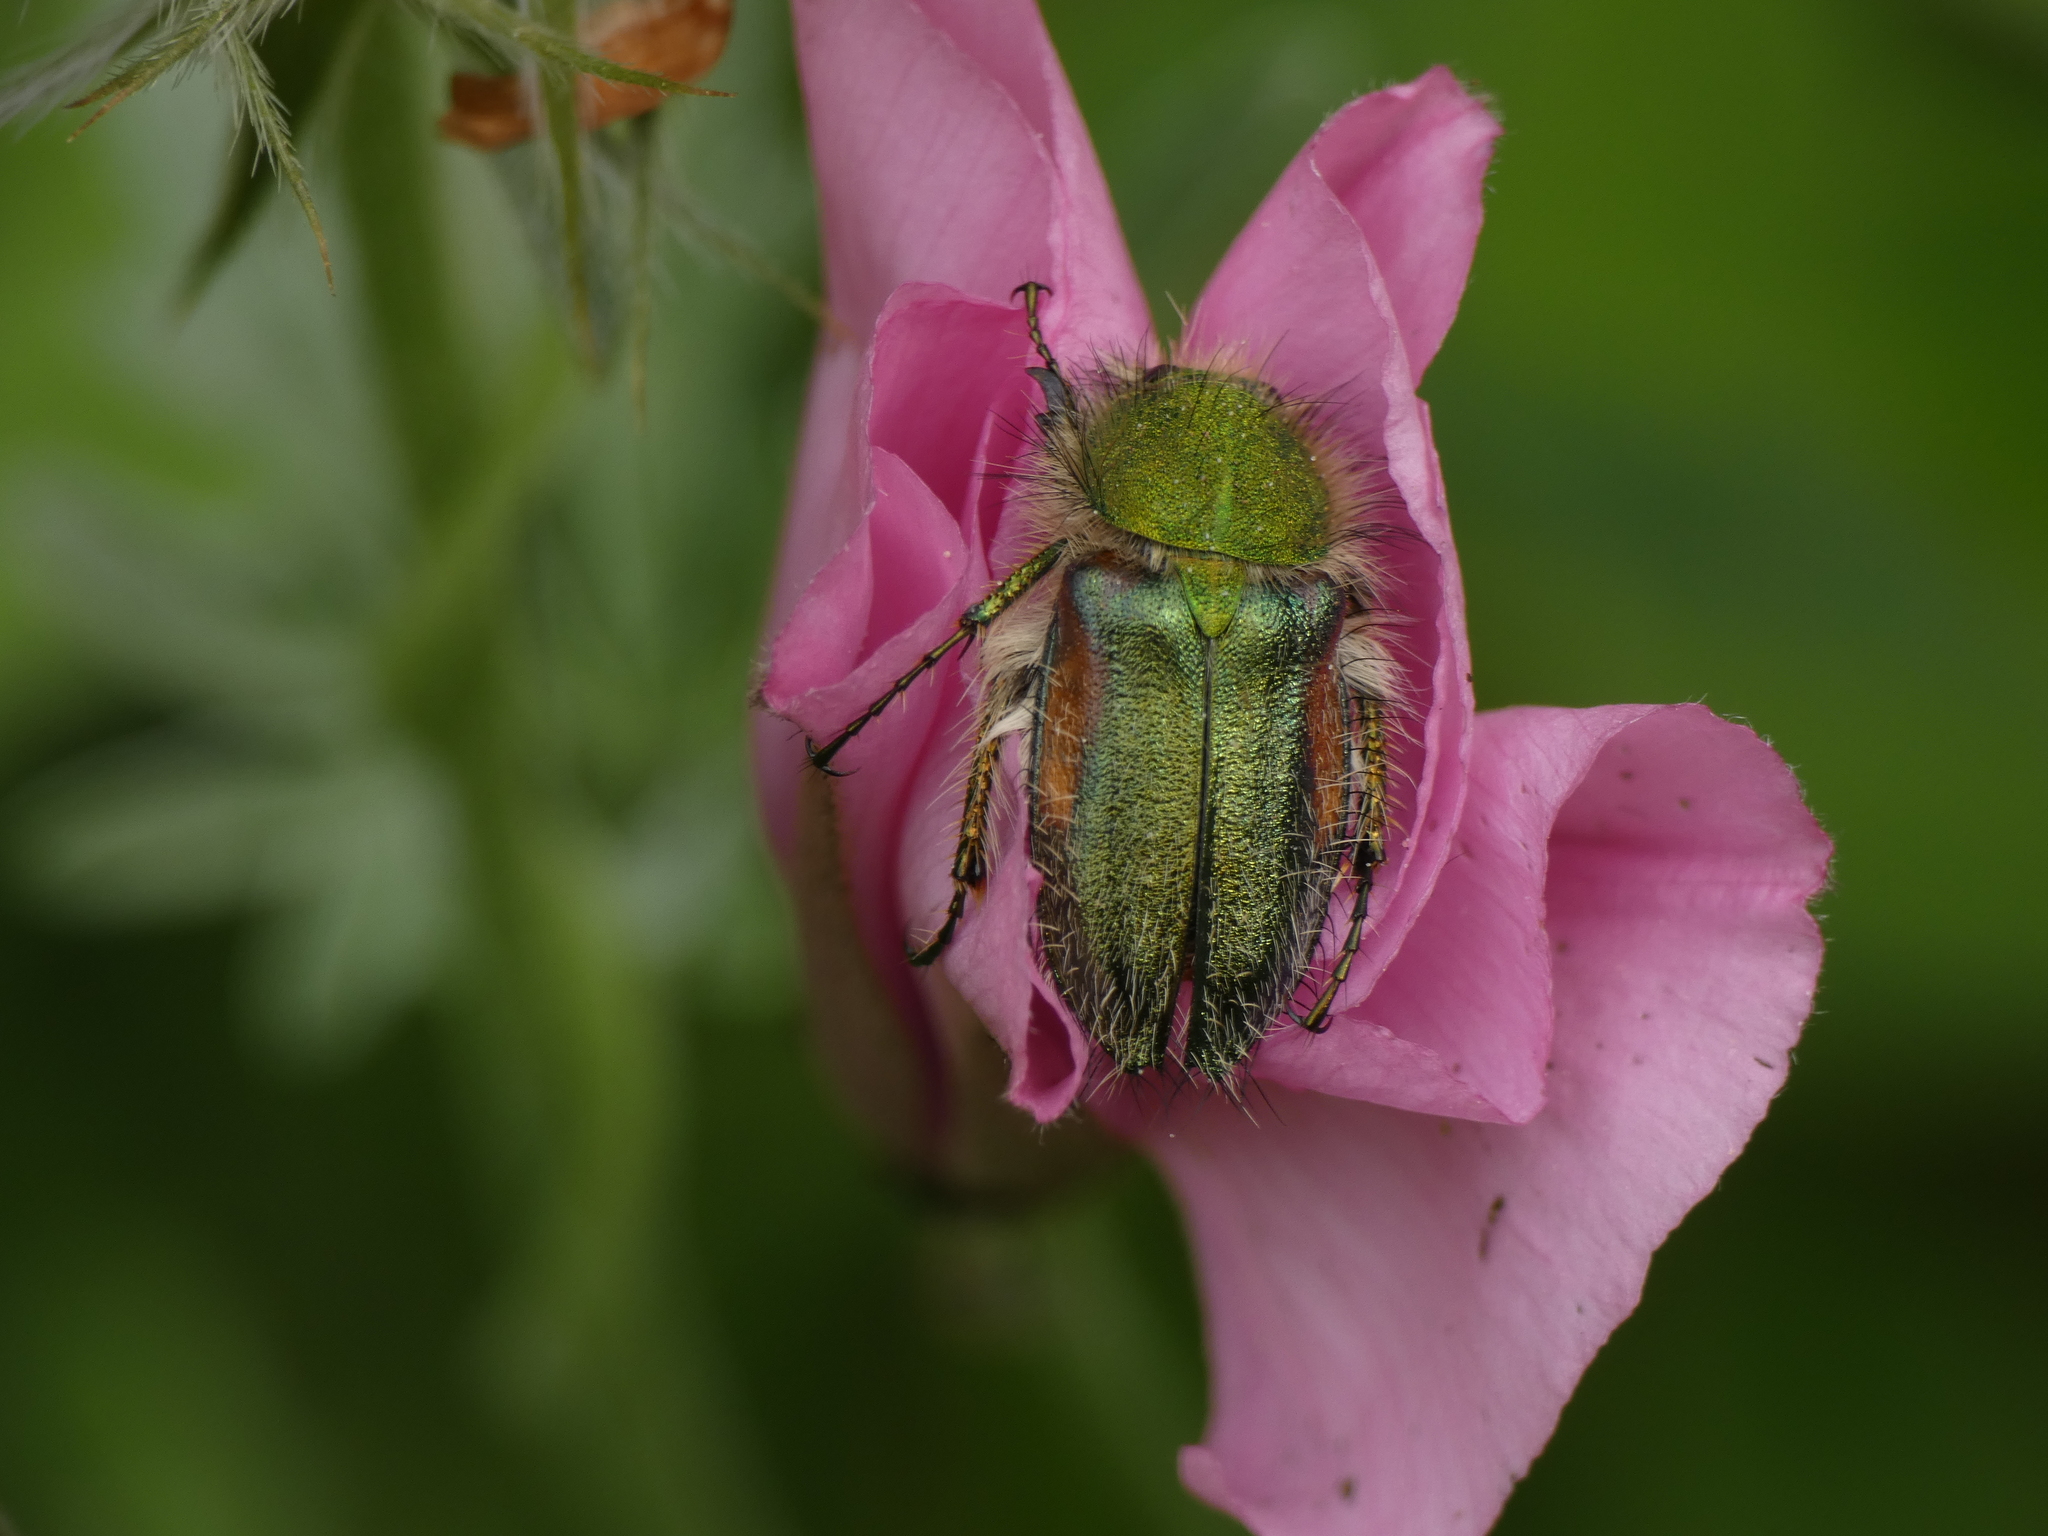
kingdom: Animalia
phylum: Arthropoda
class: Insecta
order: Coleoptera
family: Glaphyridae
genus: Pygopleurus
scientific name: Pygopleurus viridisuturatus
